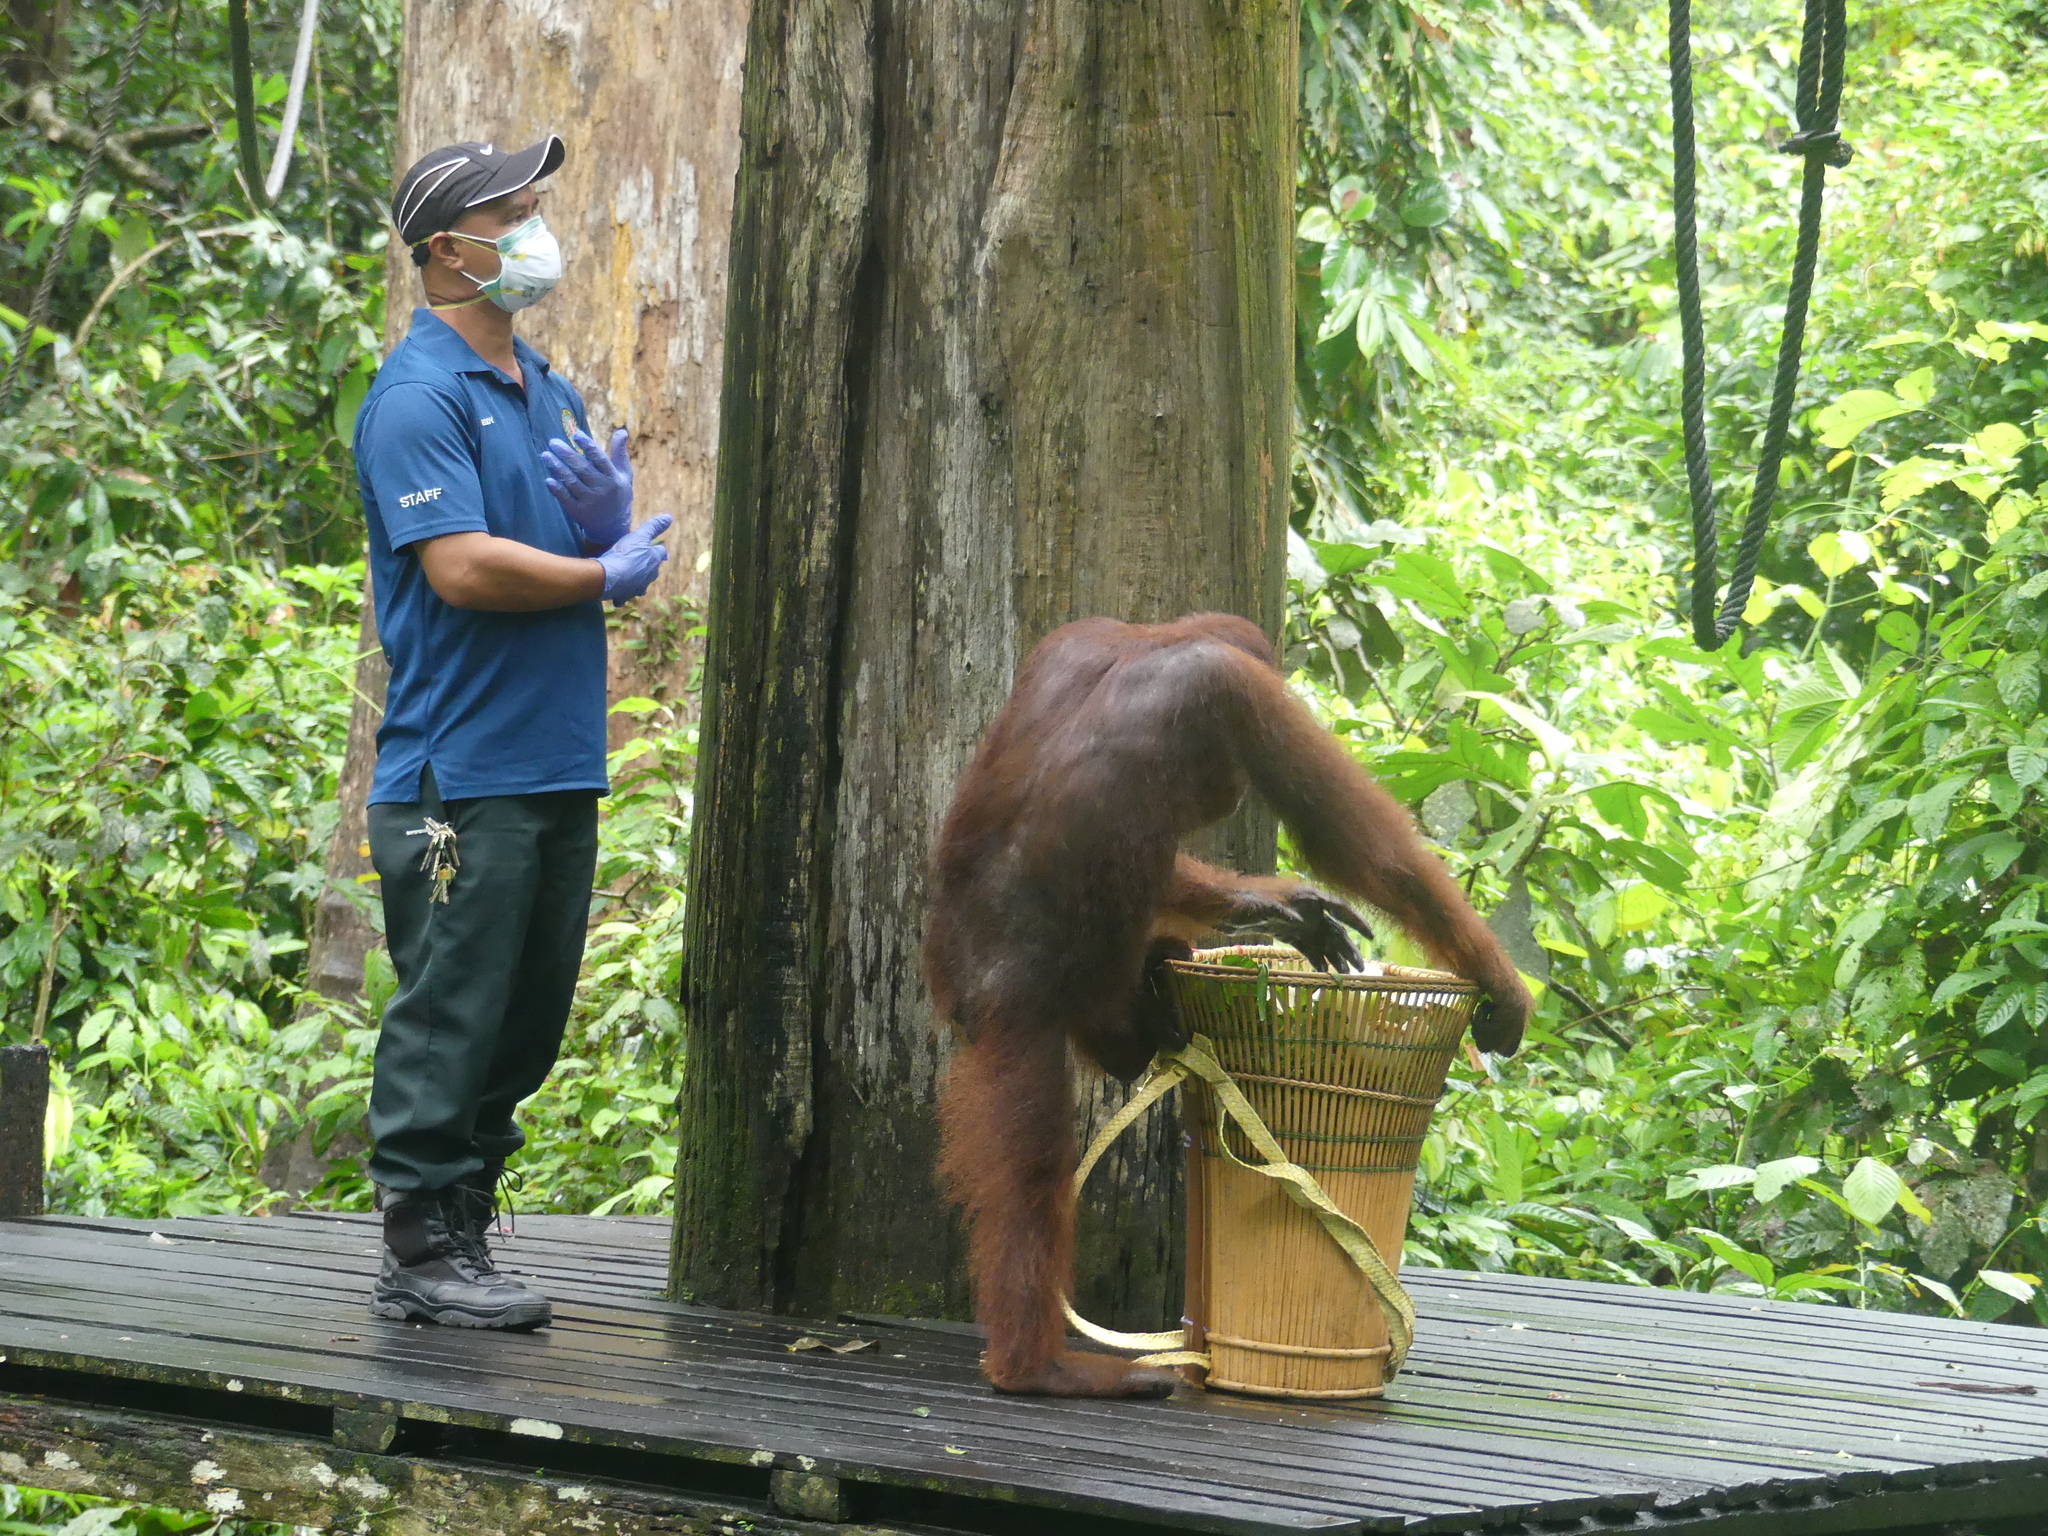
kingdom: Animalia
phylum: Chordata
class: Mammalia
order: Primates
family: Hominidae
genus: Pongo
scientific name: Pongo pygmaeus
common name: Bornean orangutan
